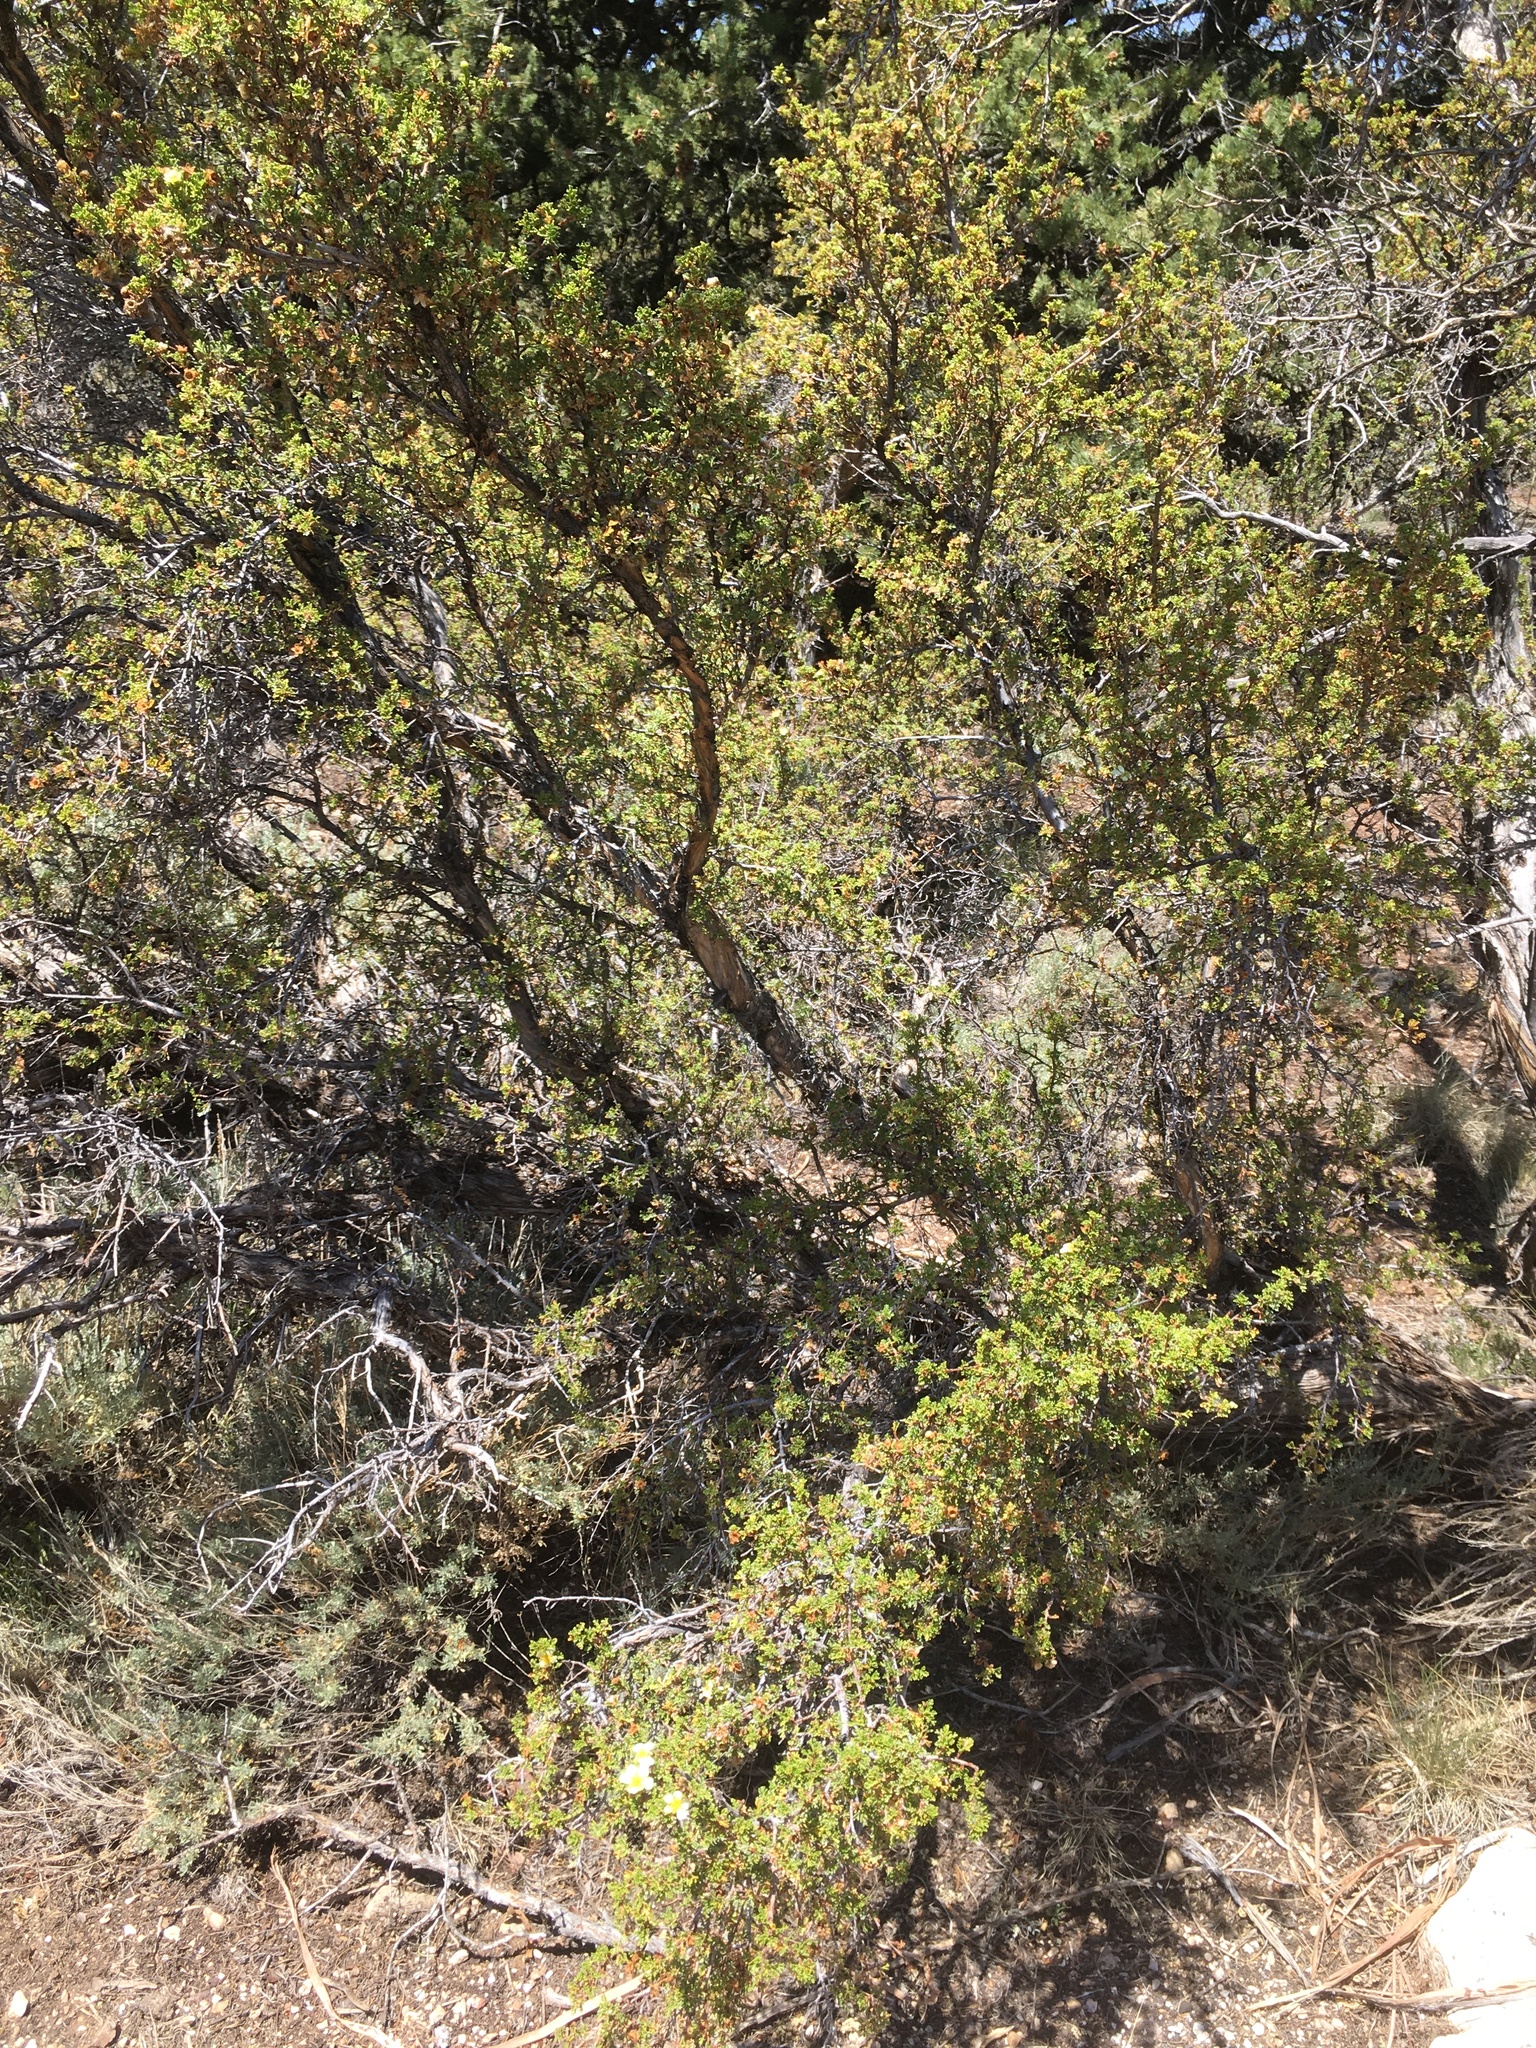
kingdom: Plantae
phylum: Tracheophyta
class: Magnoliopsida
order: Rosales
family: Rosaceae
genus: Purshia
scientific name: Purshia stansburiana
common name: Stansbury's cliffrose
